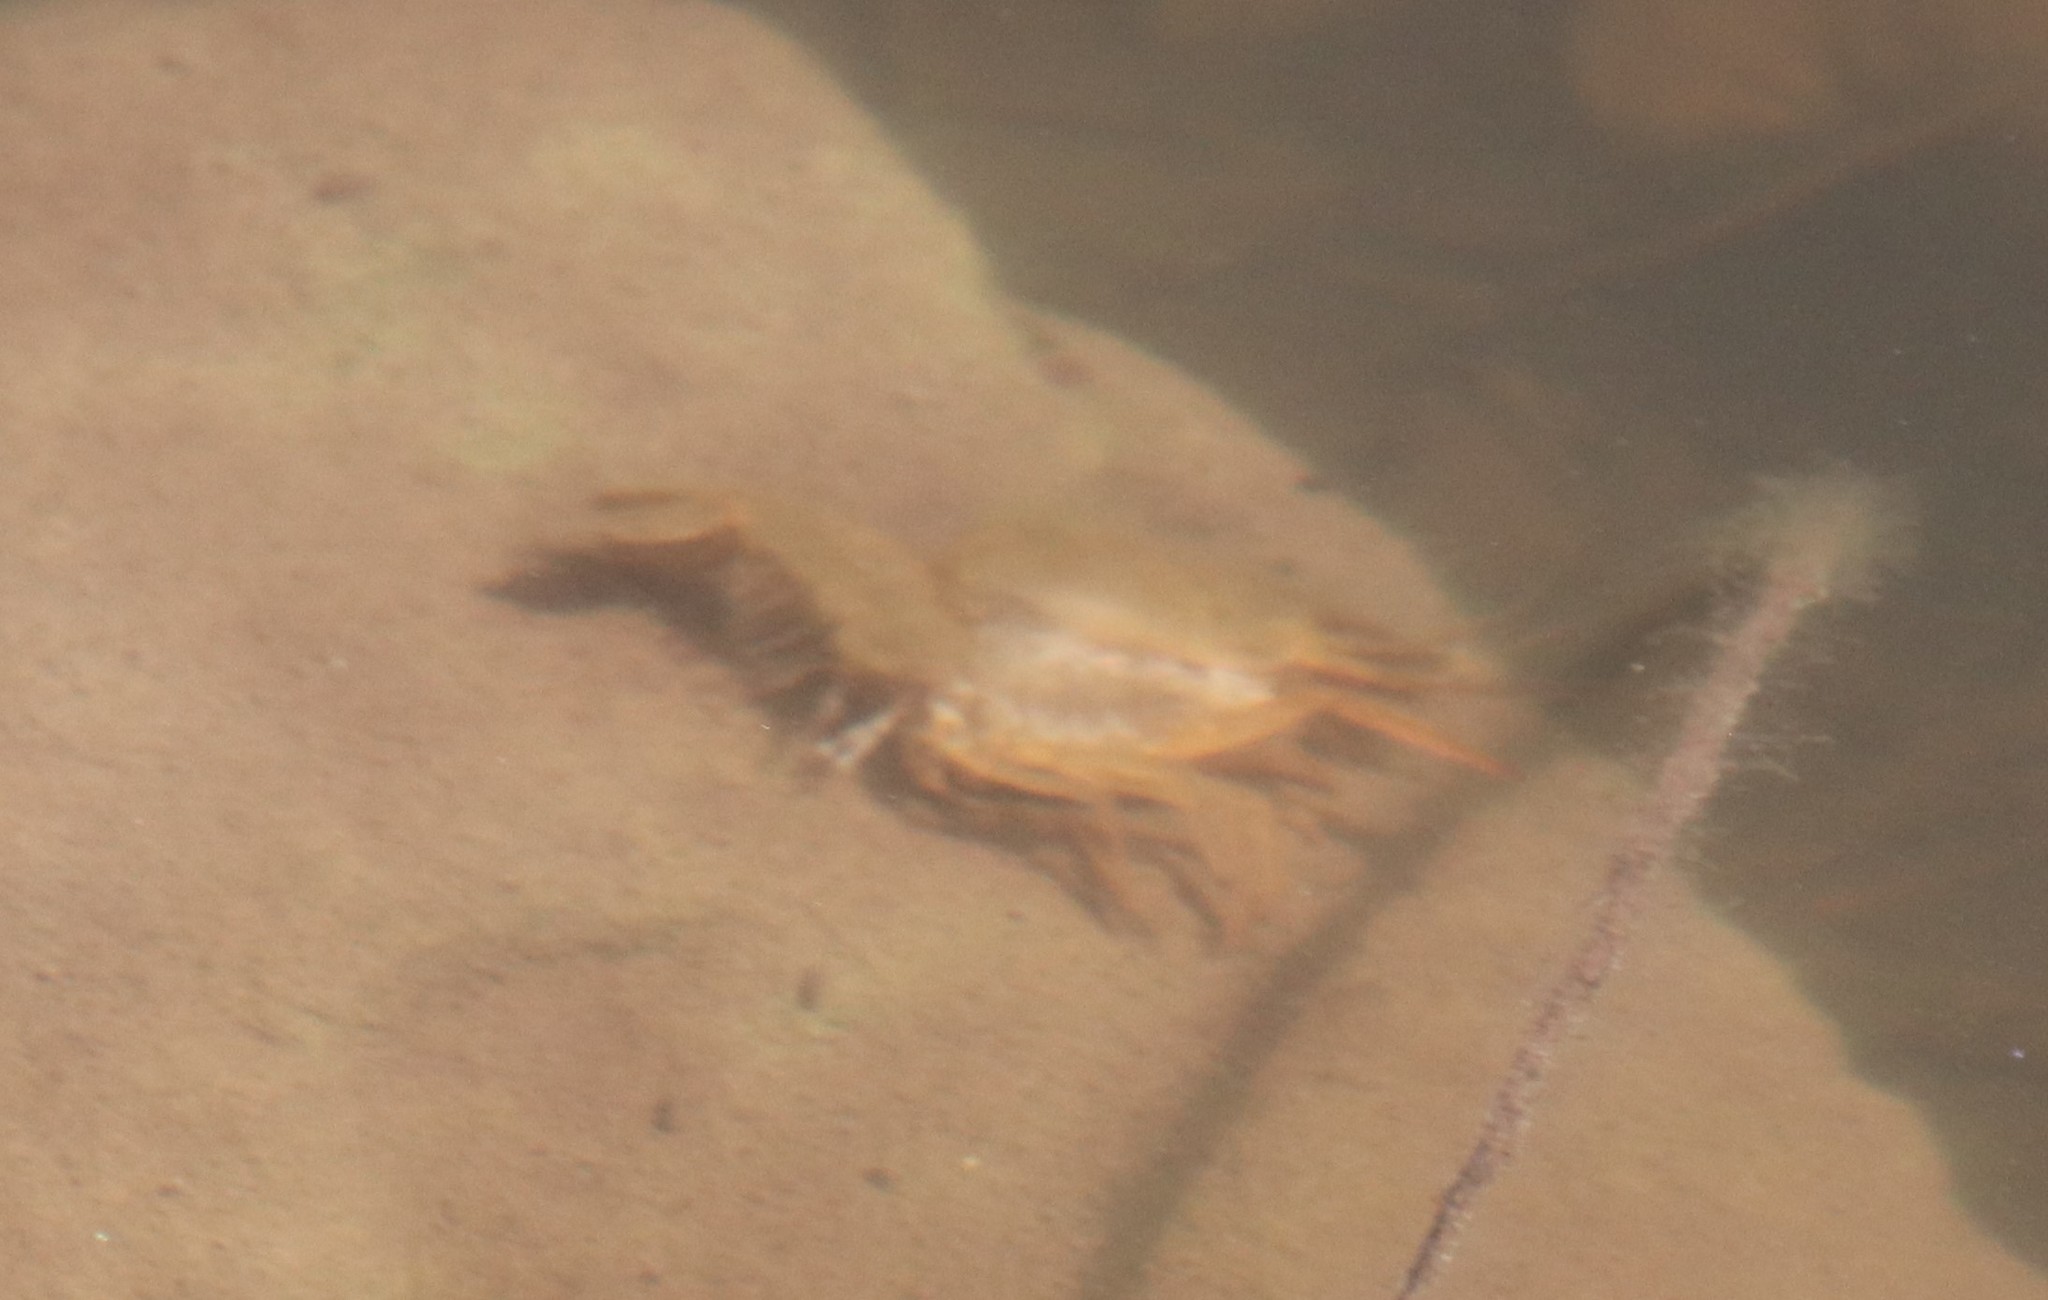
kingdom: Animalia
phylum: Arthropoda
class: Malacostraca
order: Decapoda
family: Cambaridae
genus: Procambarus
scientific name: Procambarus clarkii
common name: Red swamp crayfish
